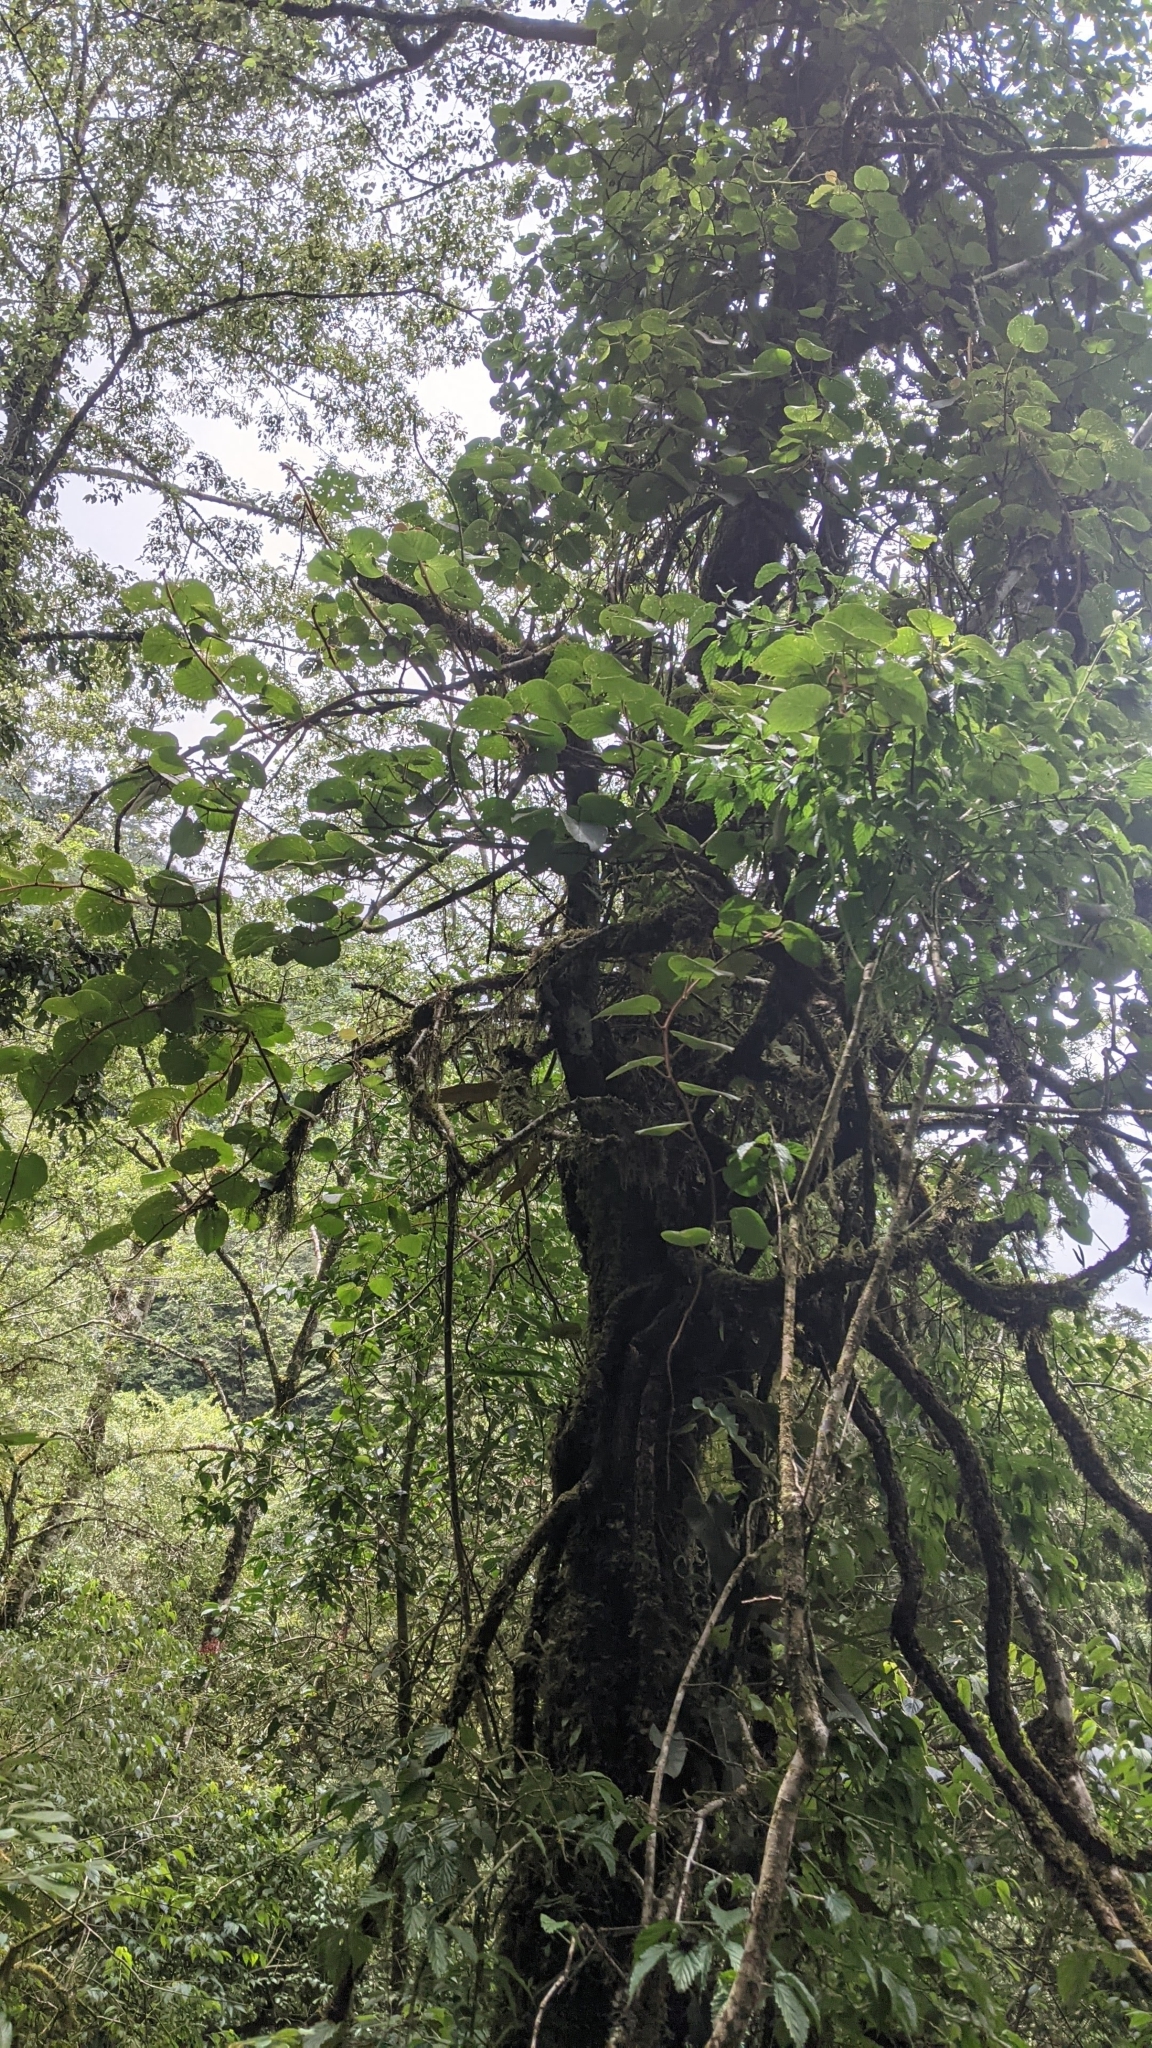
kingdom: Plantae
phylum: Tracheophyta
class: Magnoliopsida
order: Ericales
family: Actinidiaceae
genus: Actinidia
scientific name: Actinidia chinensis
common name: Kiwi
